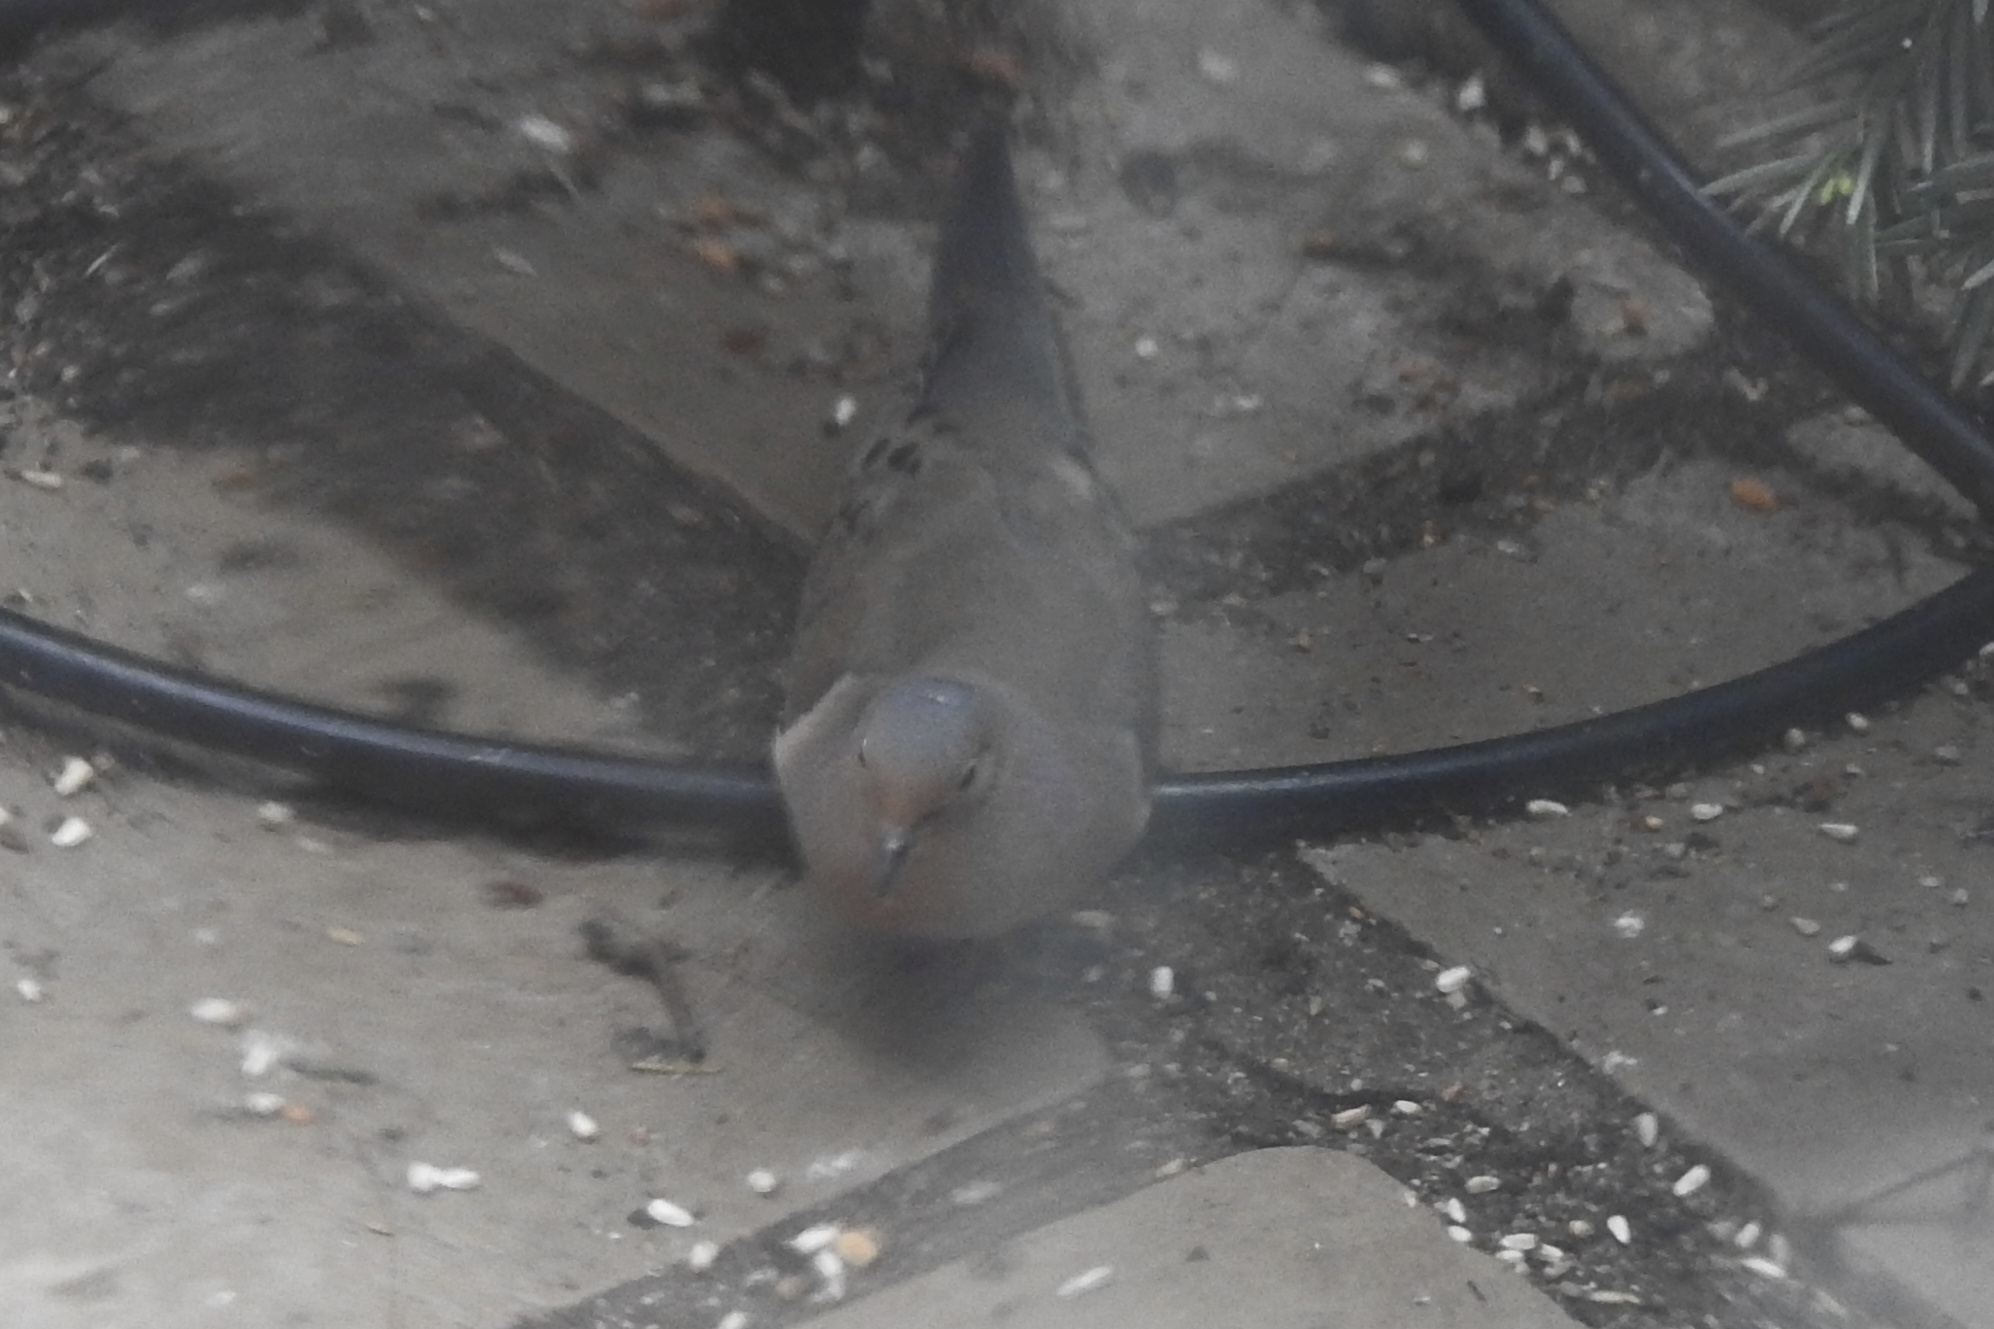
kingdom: Animalia
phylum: Chordata
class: Aves
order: Columbiformes
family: Columbidae
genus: Zenaida
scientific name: Zenaida macroura
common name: Mourning dove
